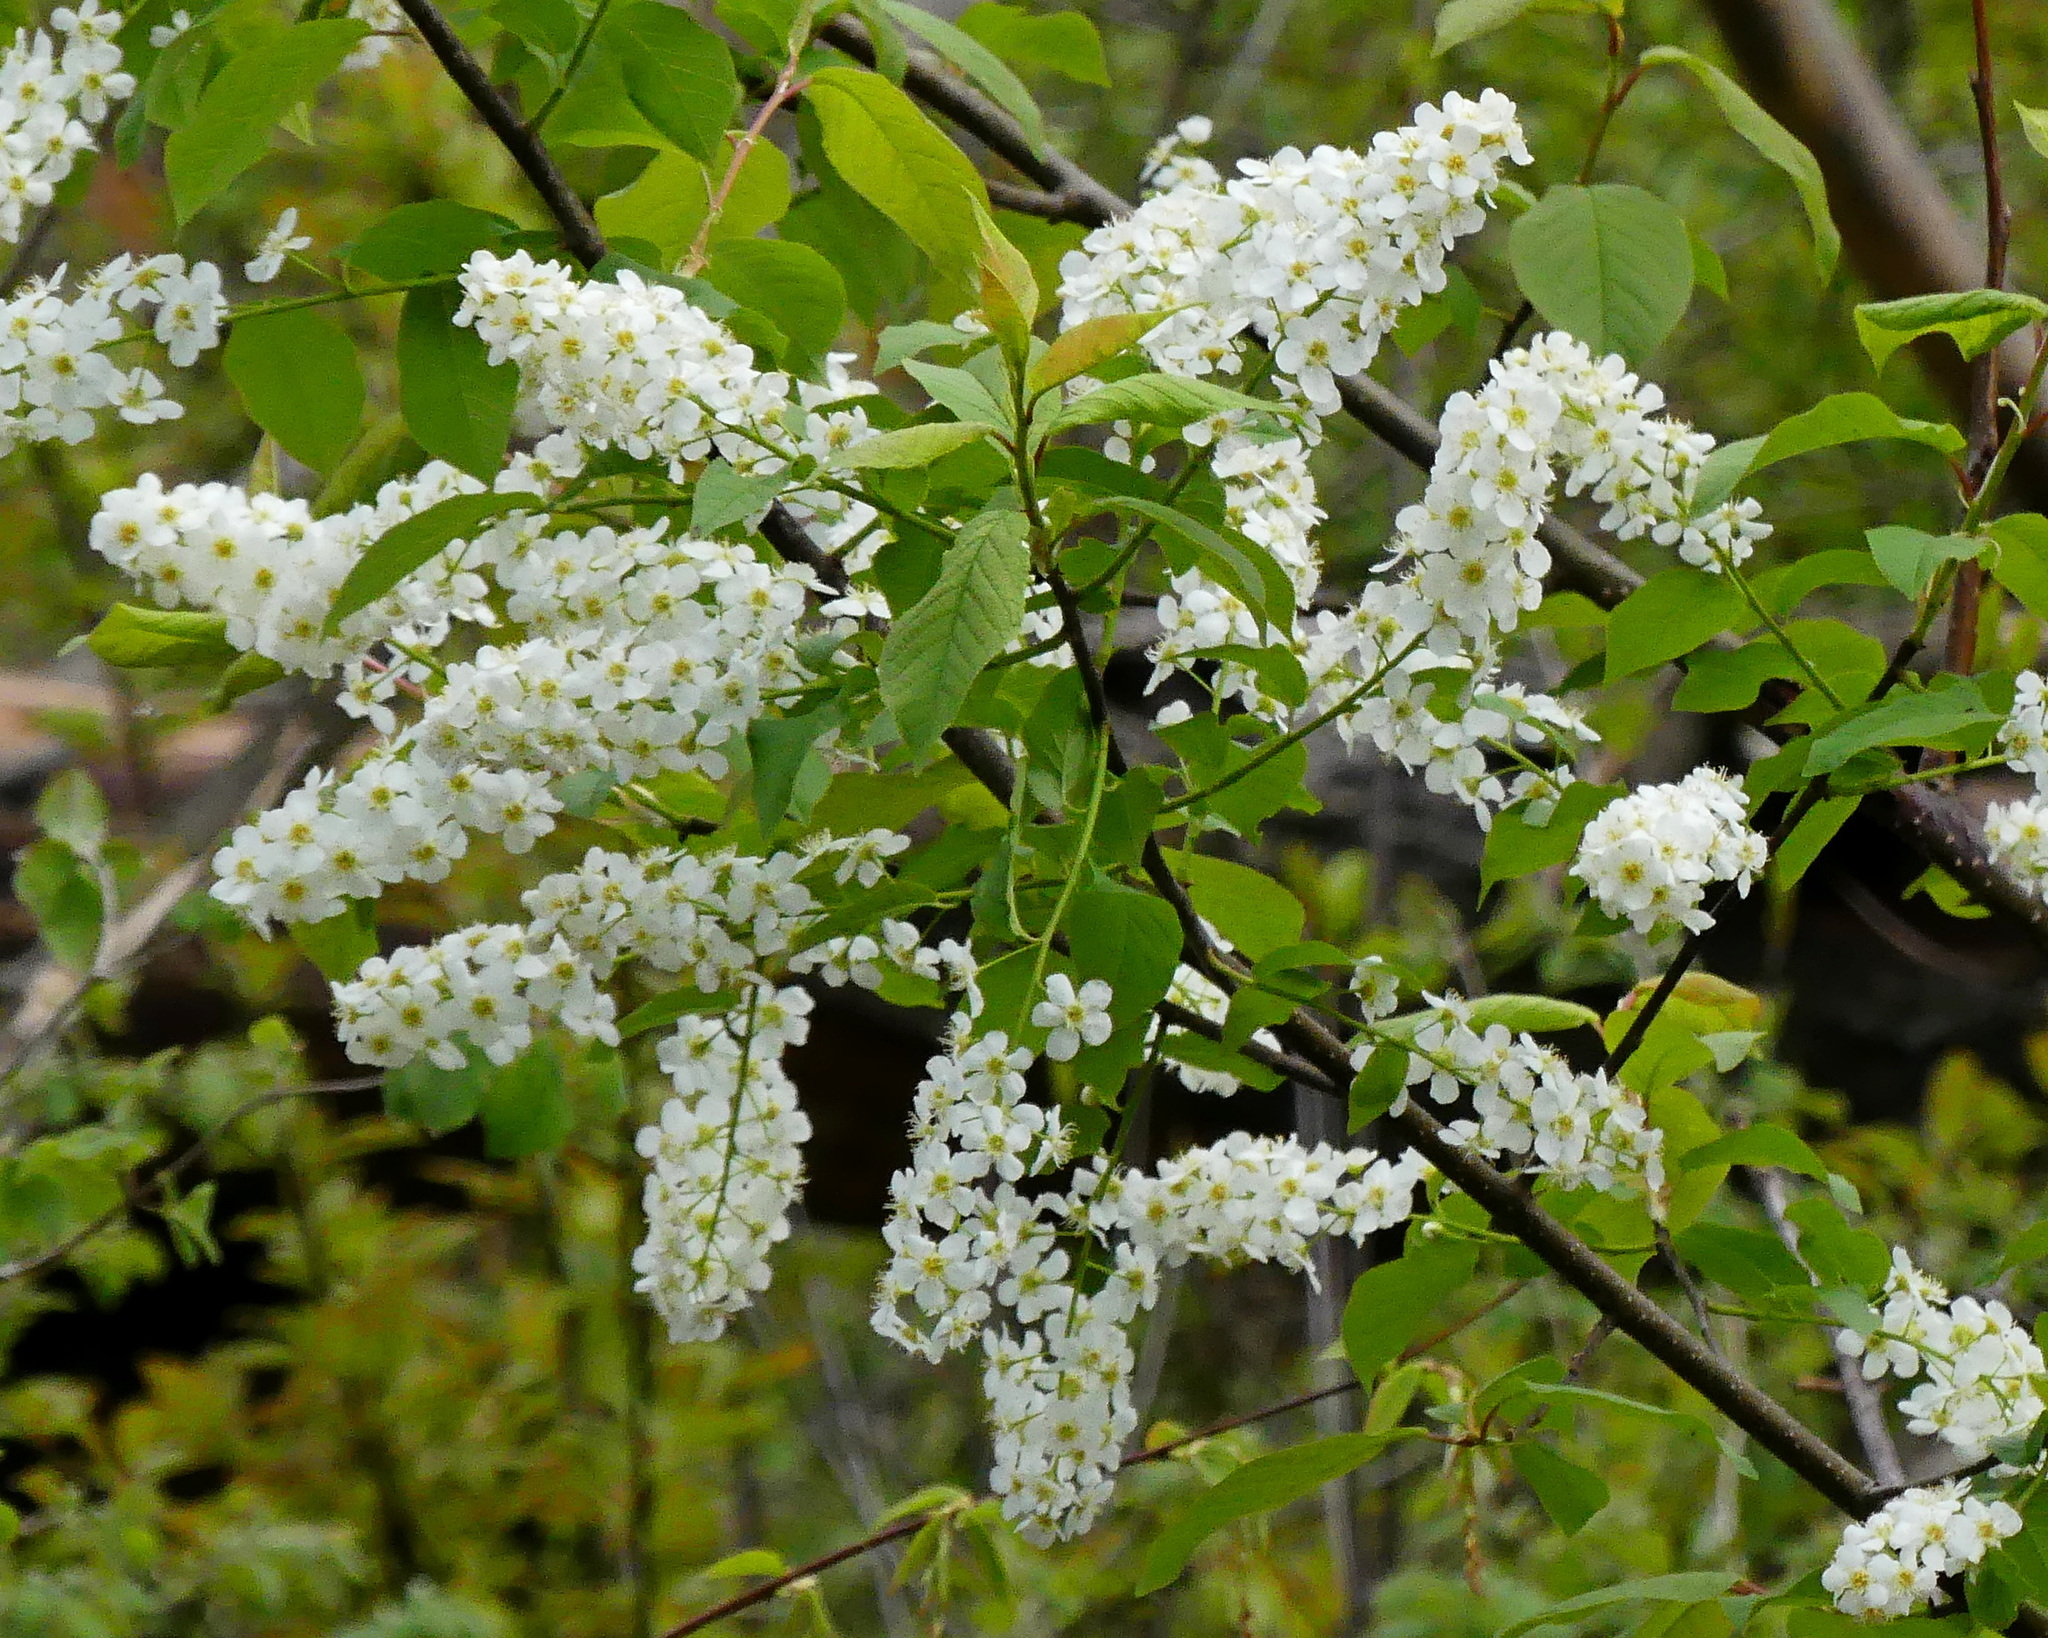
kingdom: Plantae
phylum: Tracheophyta
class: Magnoliopsida
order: Rosales
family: Rosaceae
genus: Prunus
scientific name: Prunus virginiana
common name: Chokecherry
